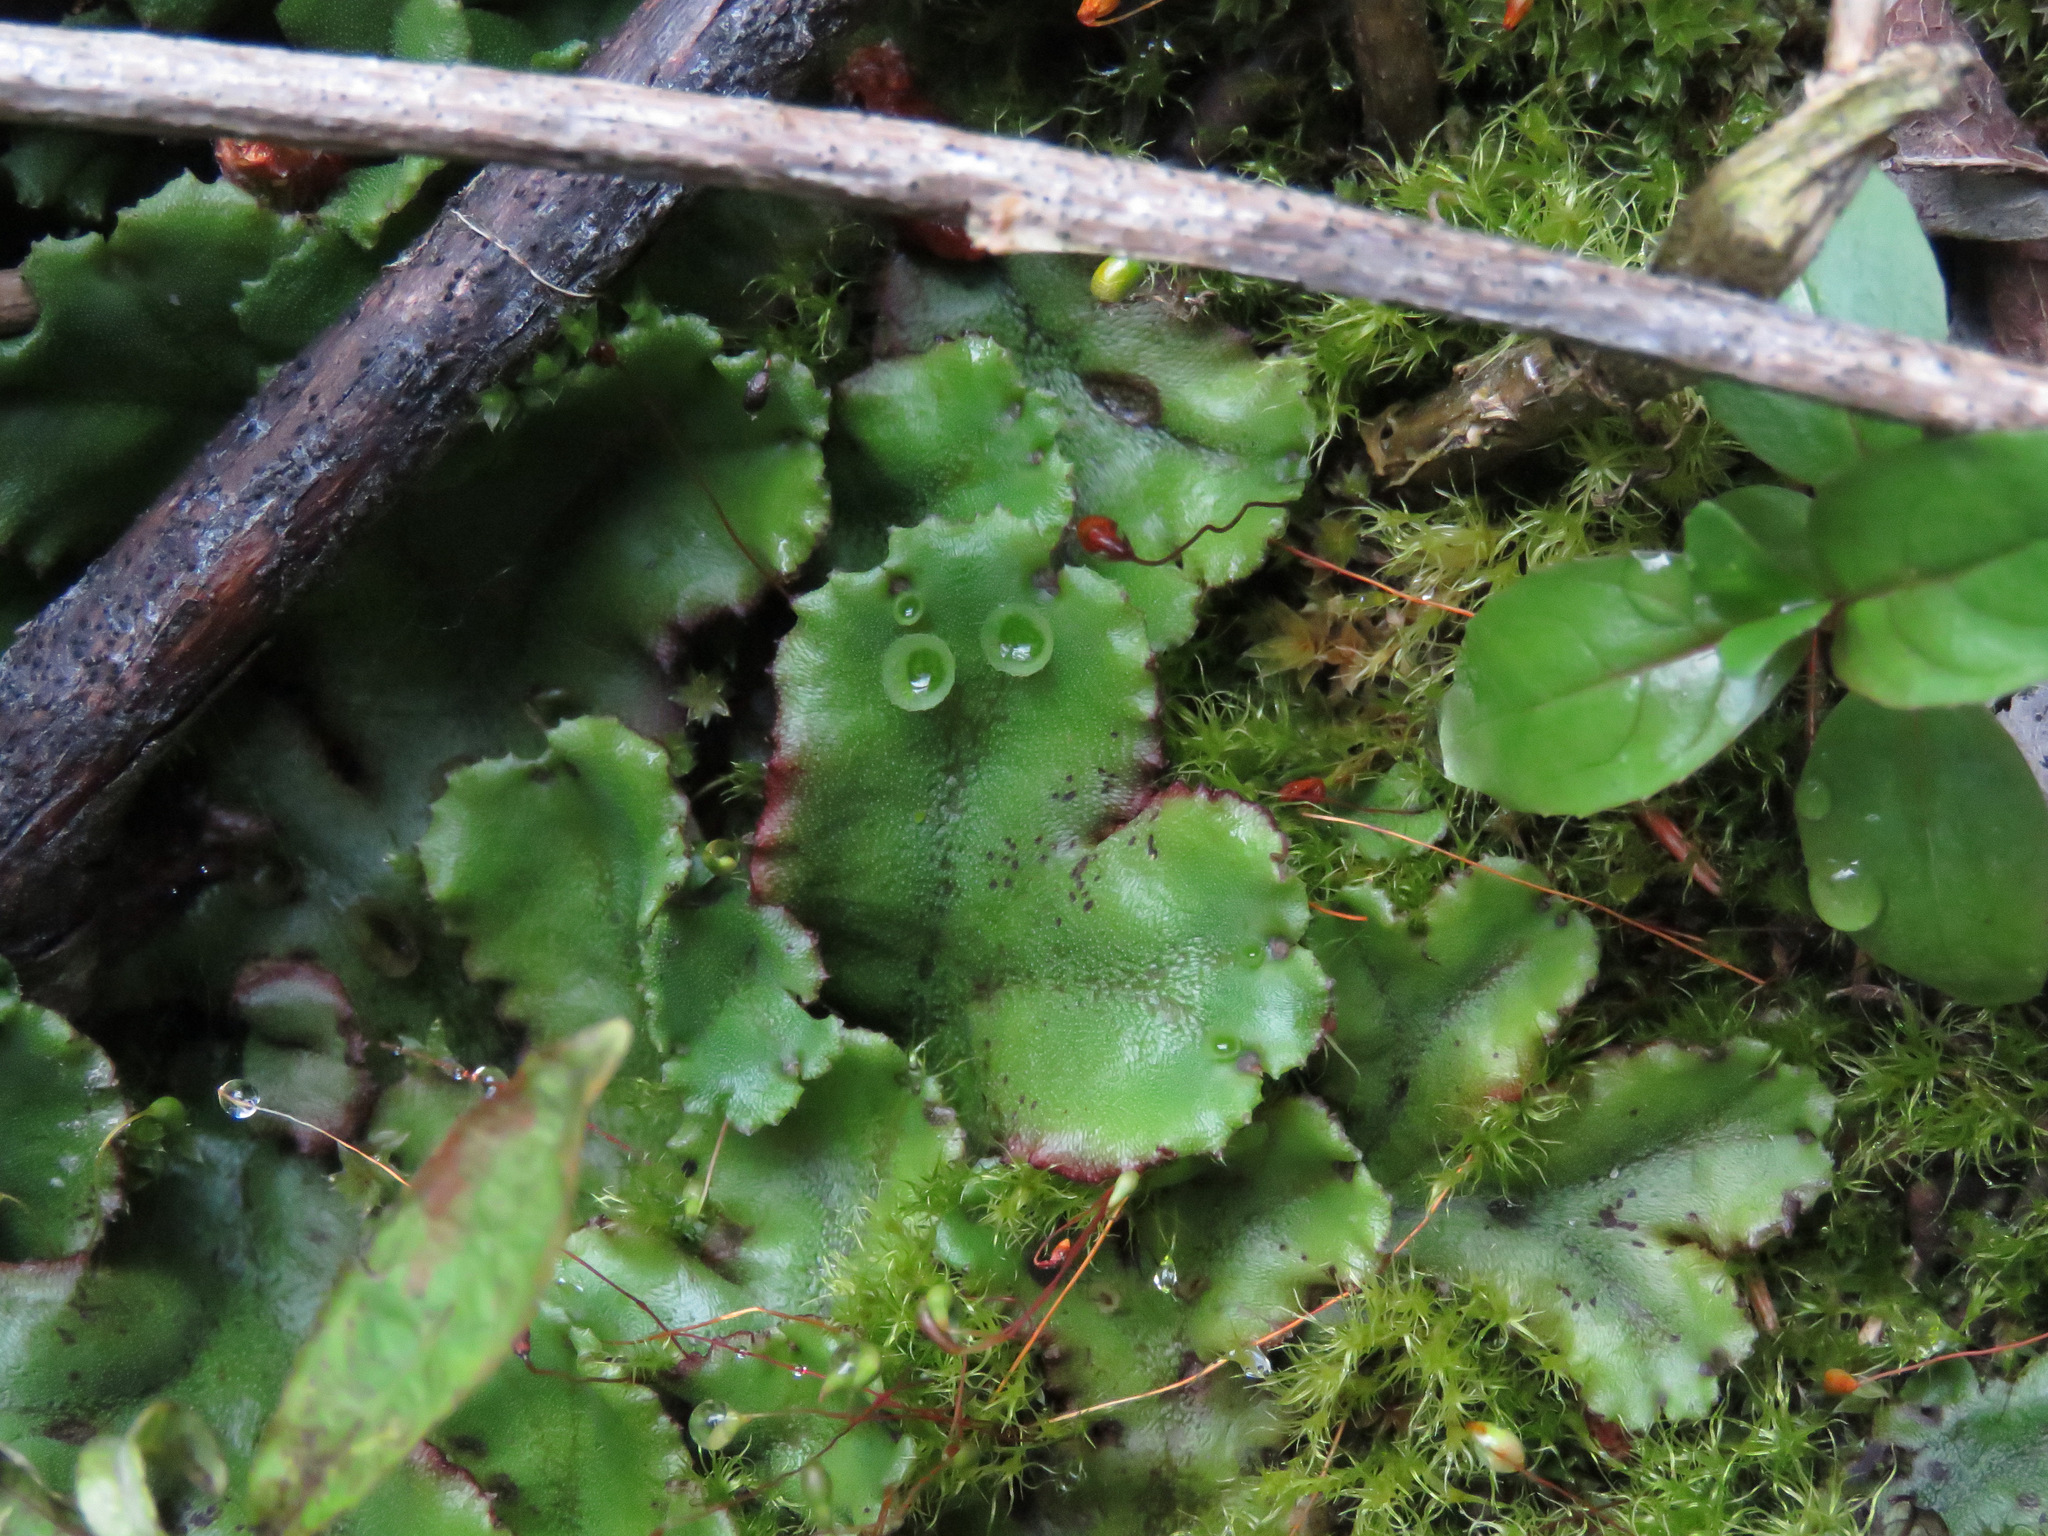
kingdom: Plantae
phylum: Marchantiophyta
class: Marchantiopsida
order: Marchantiales
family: Marchantiaceae
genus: Marchantia
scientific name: Marchantia polymorpha
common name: Common liverwort
